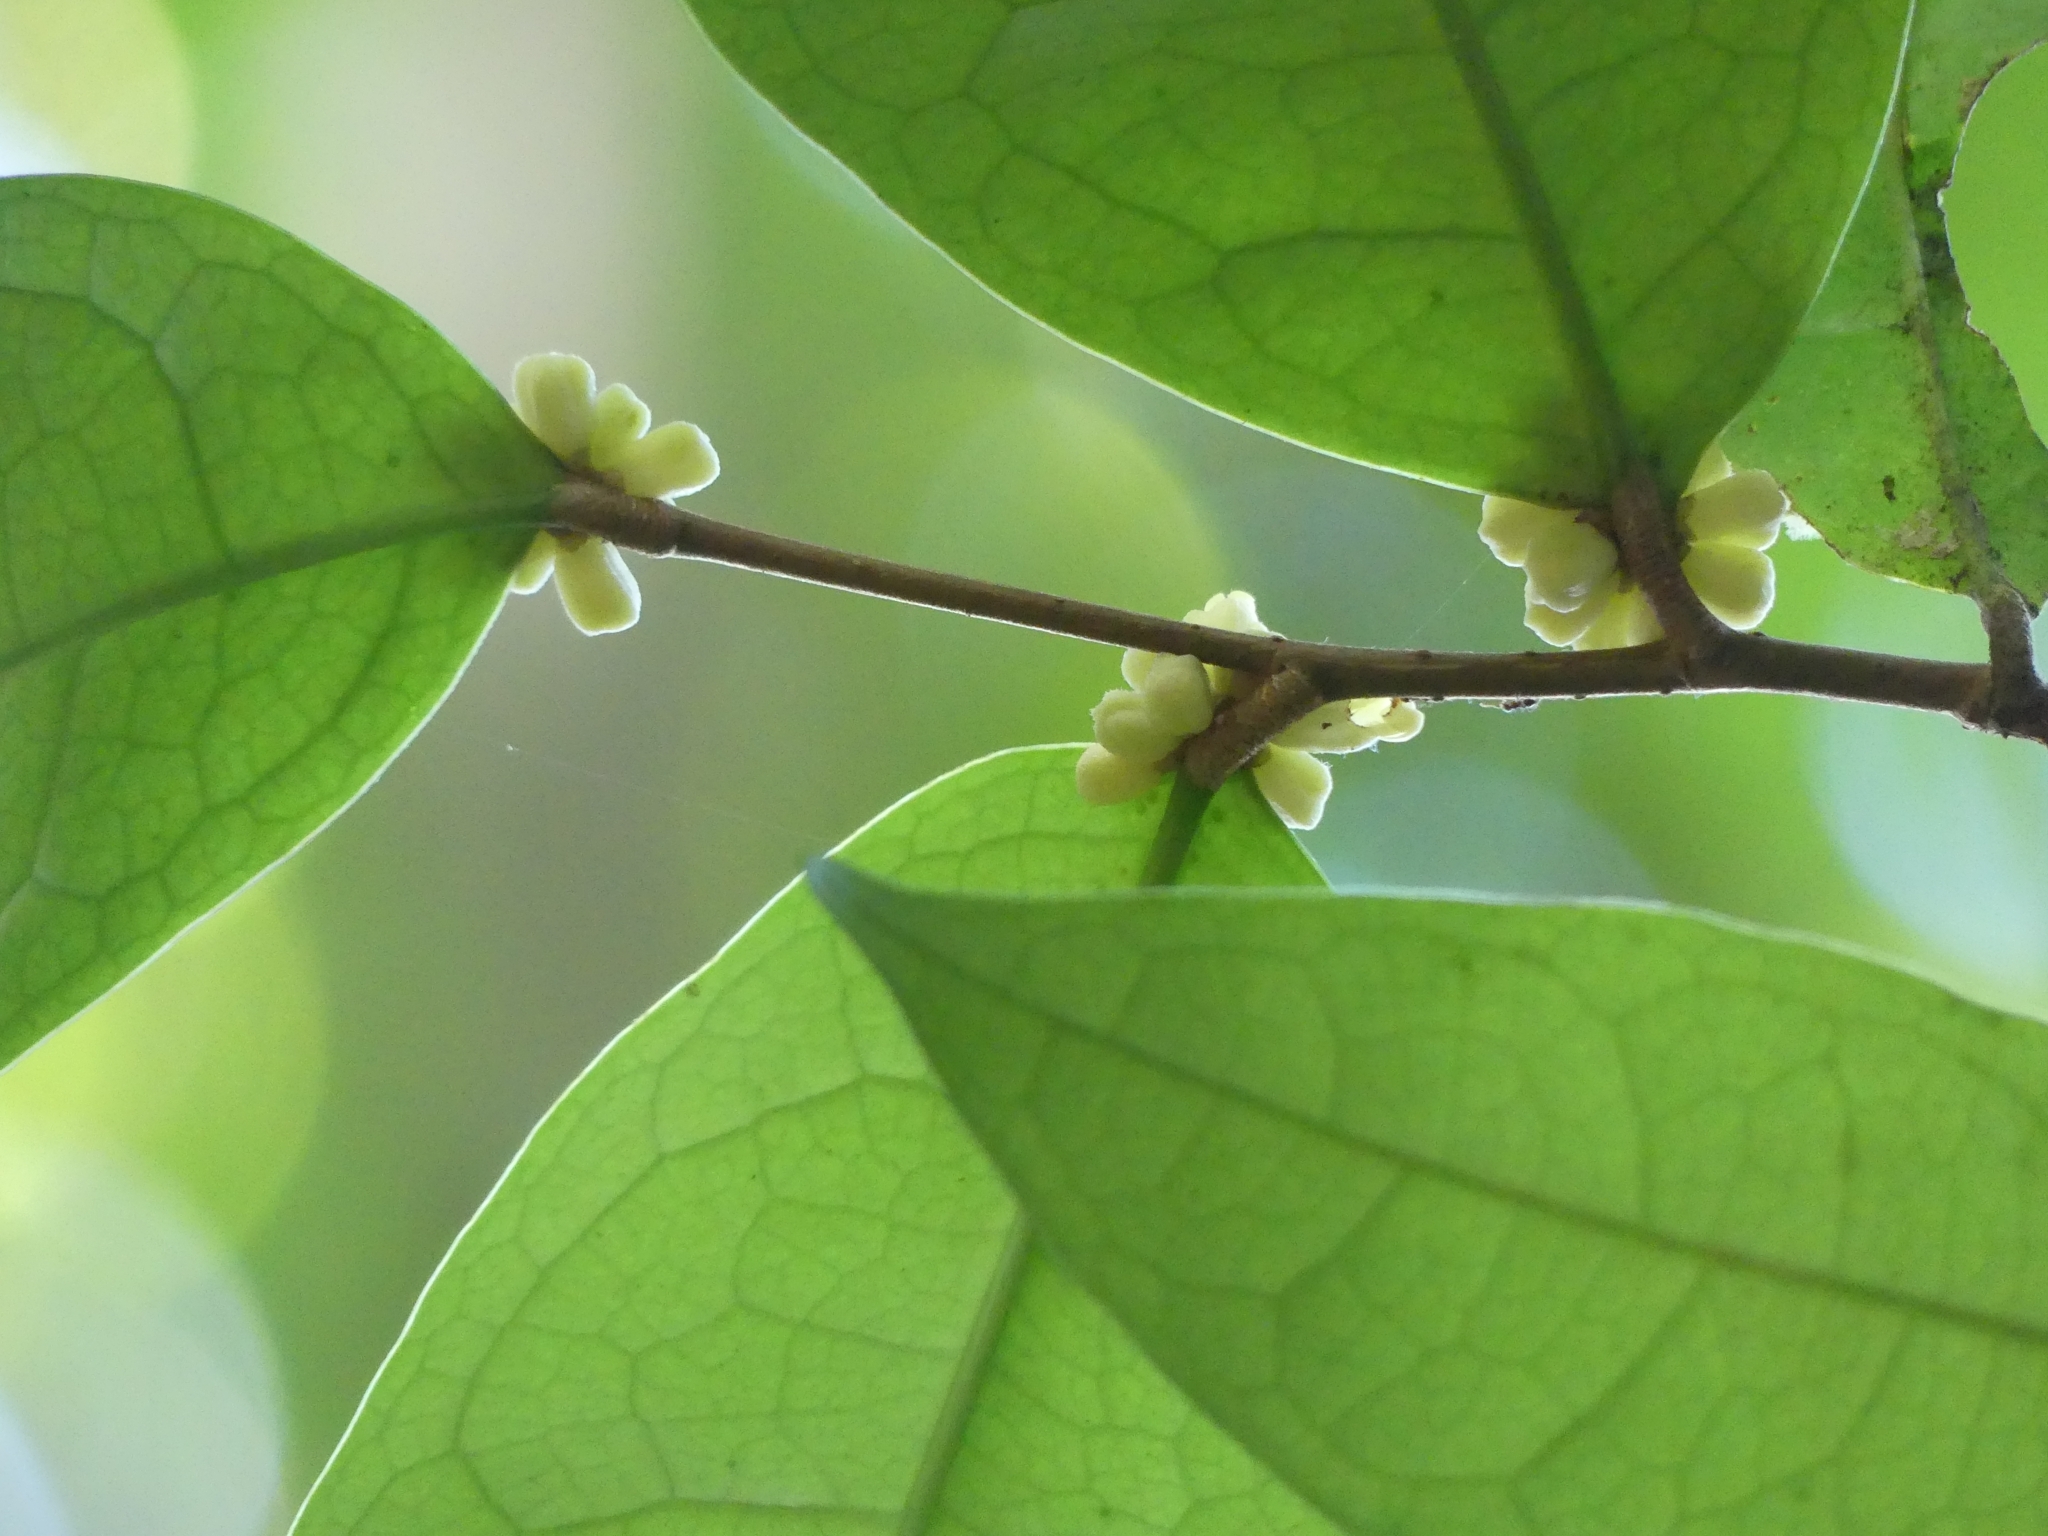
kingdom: Plantae
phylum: Tracheophyta
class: Magnoliopsida
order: Malpighiales
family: Dichapetalaceae
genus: Tapura
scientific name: Tapura guianensis
